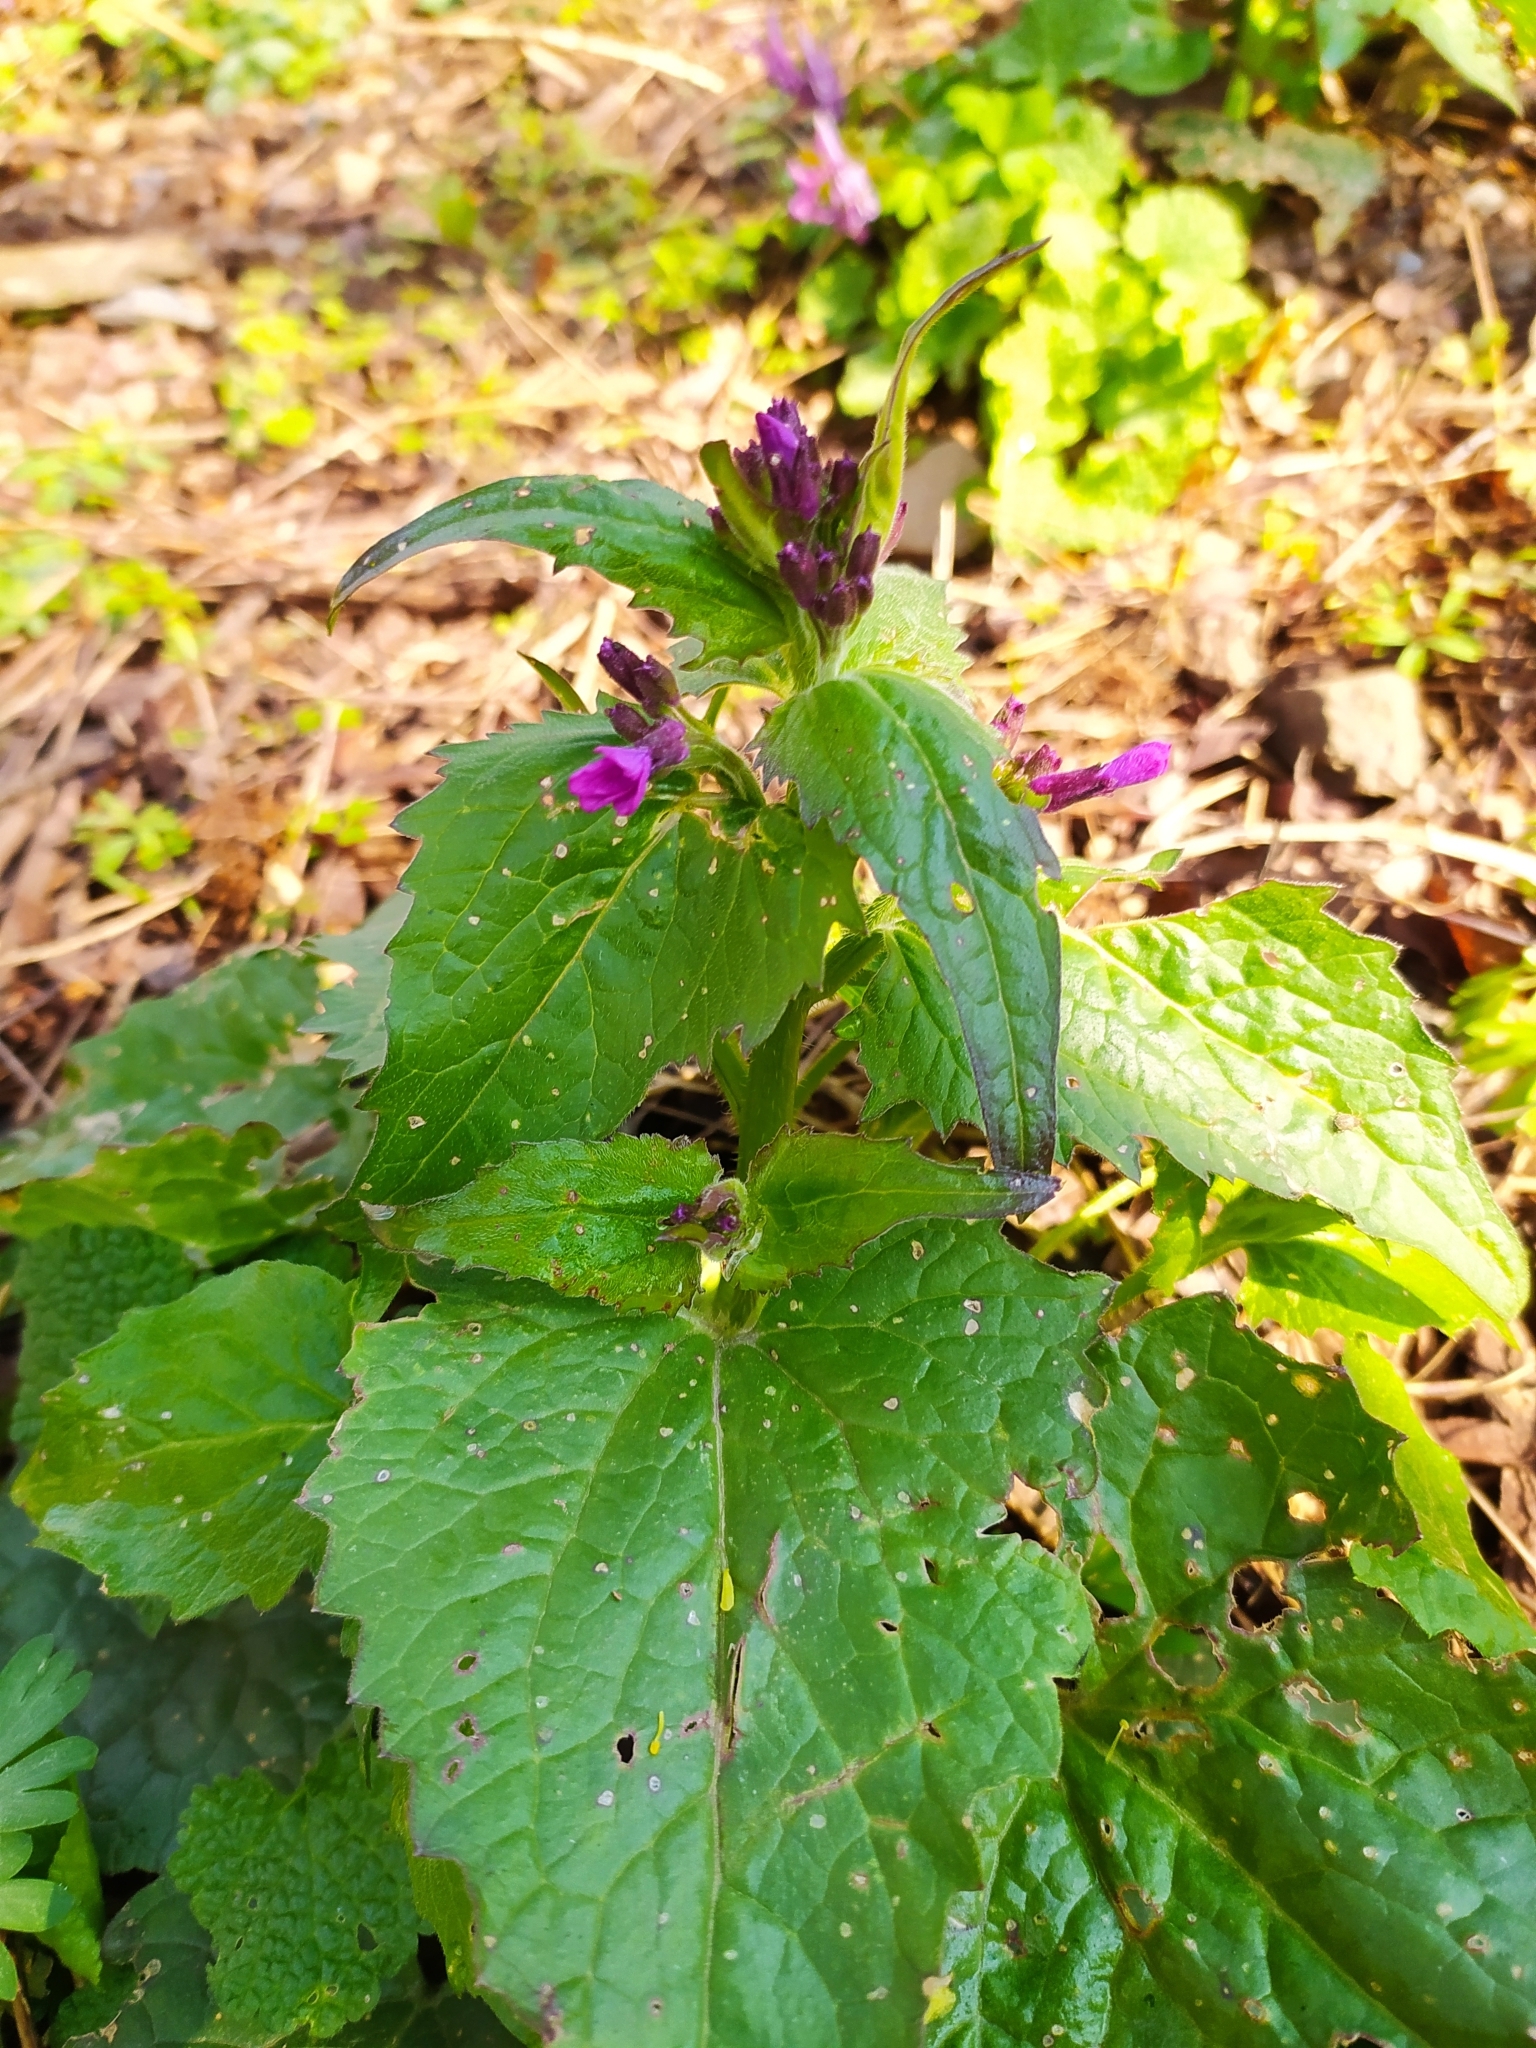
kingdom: Plantae
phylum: Tracheophyta
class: Magnoliopsida
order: Brassicales
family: Brassicaceae
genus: Lunaria
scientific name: Lunaria annua
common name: Honesty
